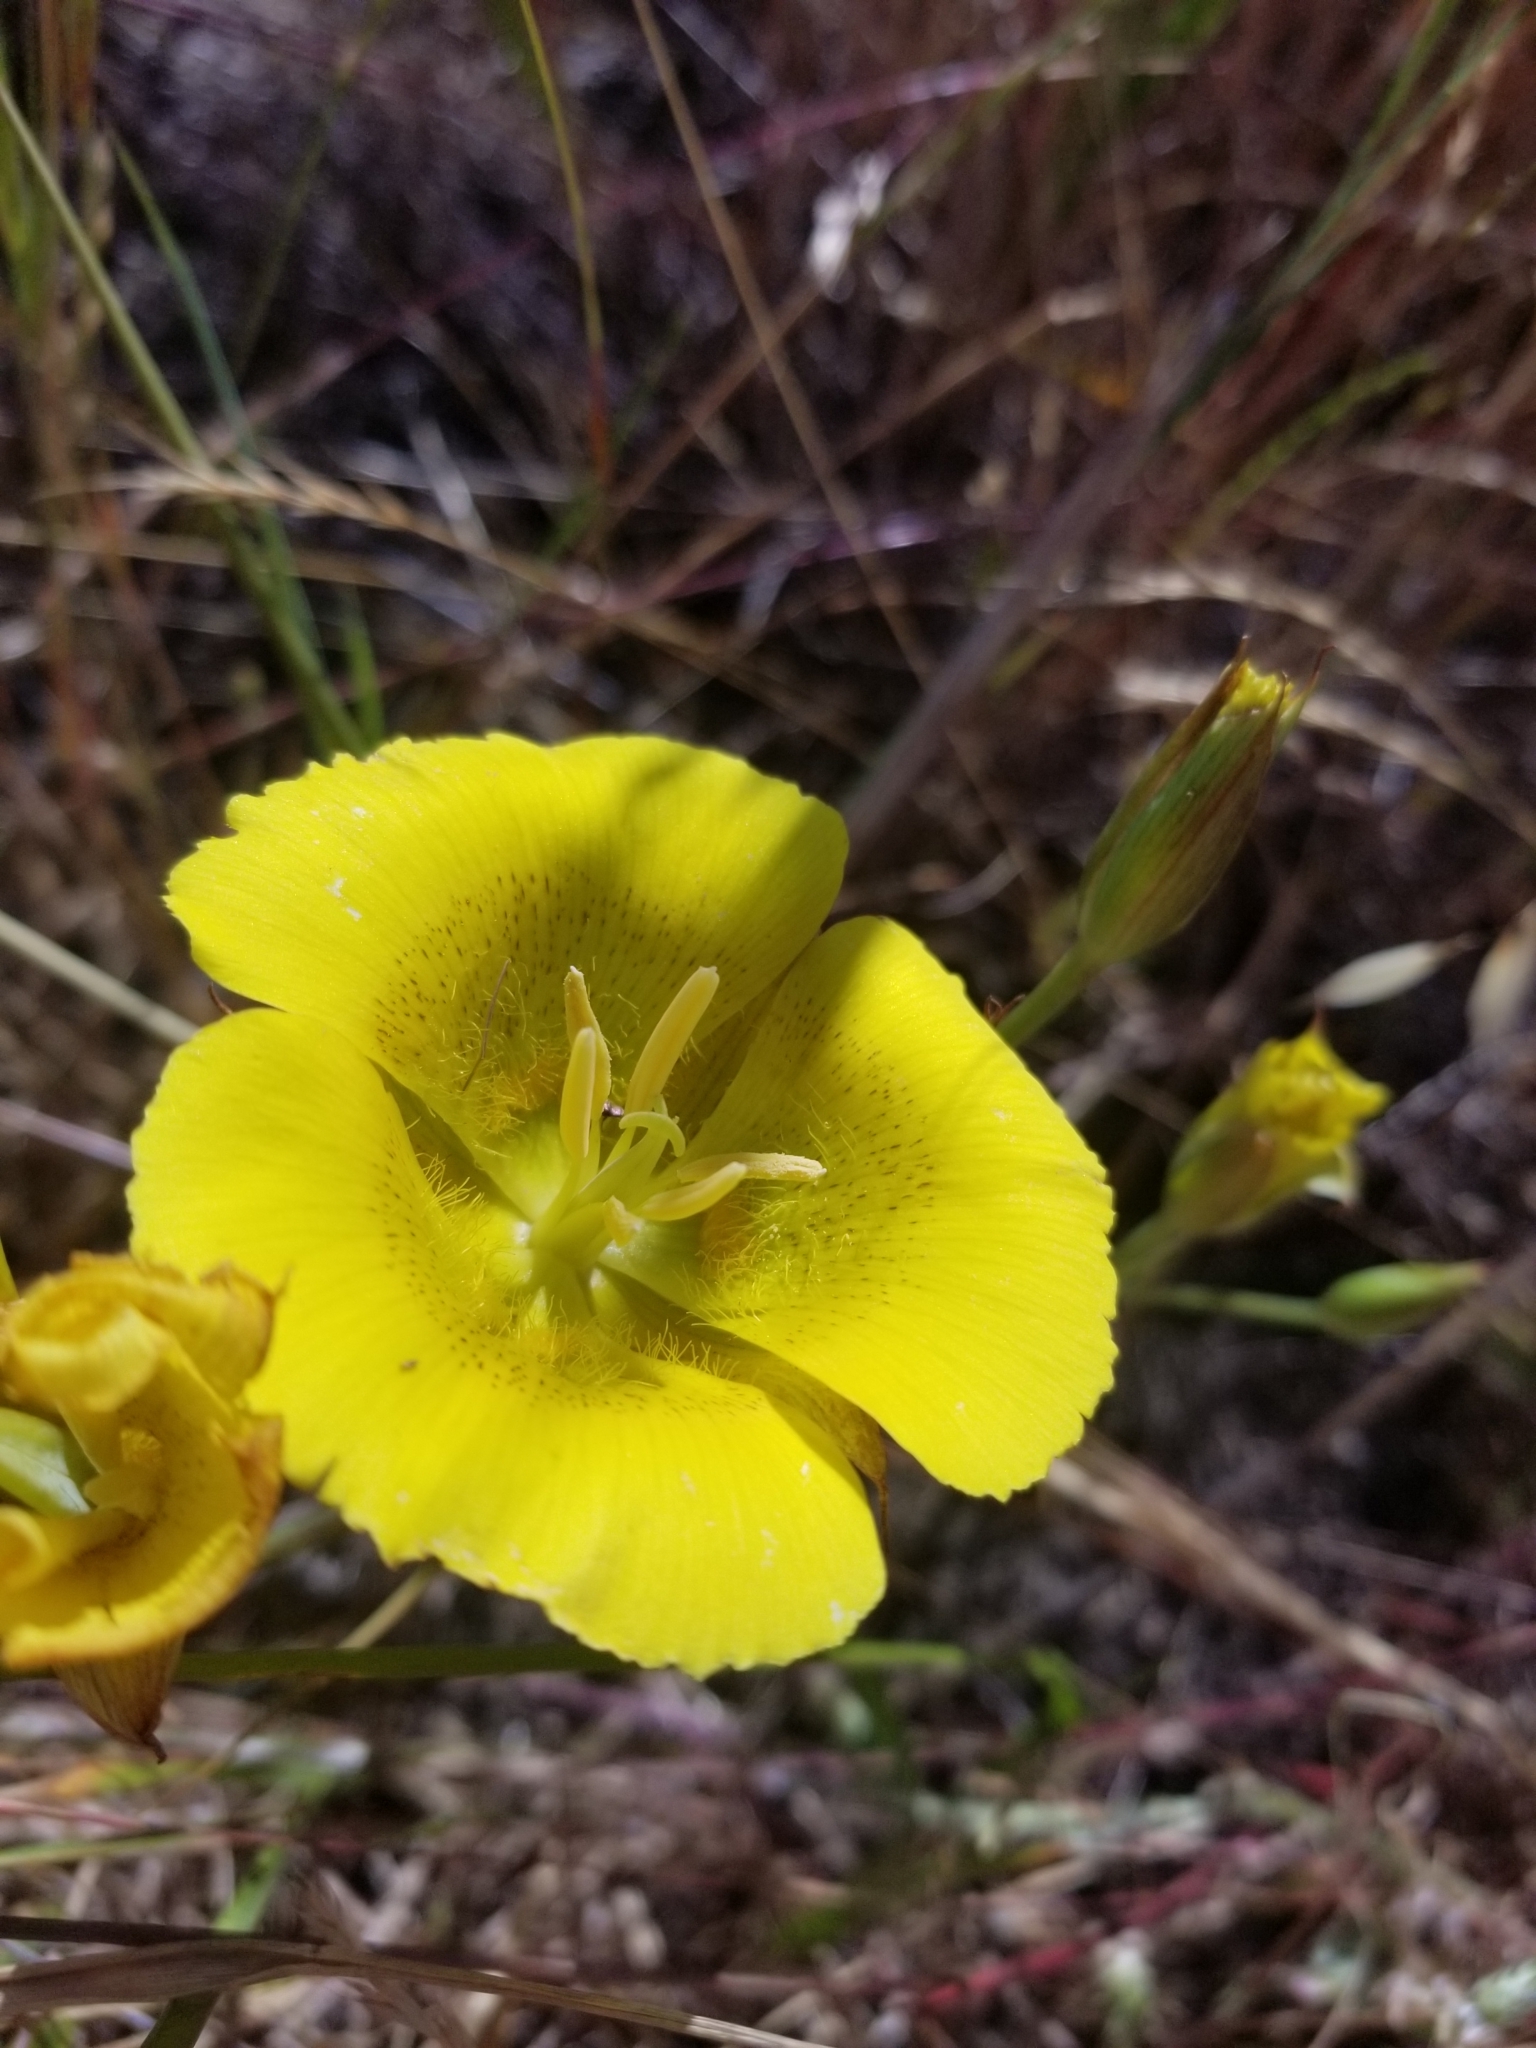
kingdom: Plantae
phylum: Tracheophyta
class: Liliopsida
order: Liliales
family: Liliaceae
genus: Calochortus
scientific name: Calochortus luteus
